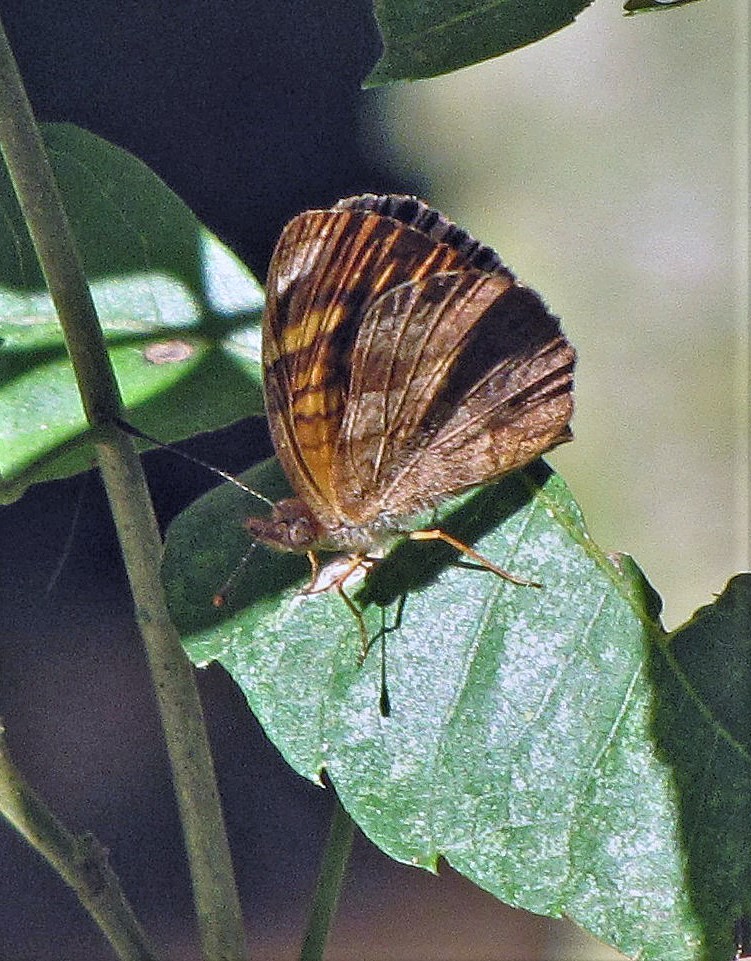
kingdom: Animalia
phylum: Arthropoda
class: Insecta
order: Lepidoptera
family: Nymphalidae
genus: Ortilia
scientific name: Ortilia velica
